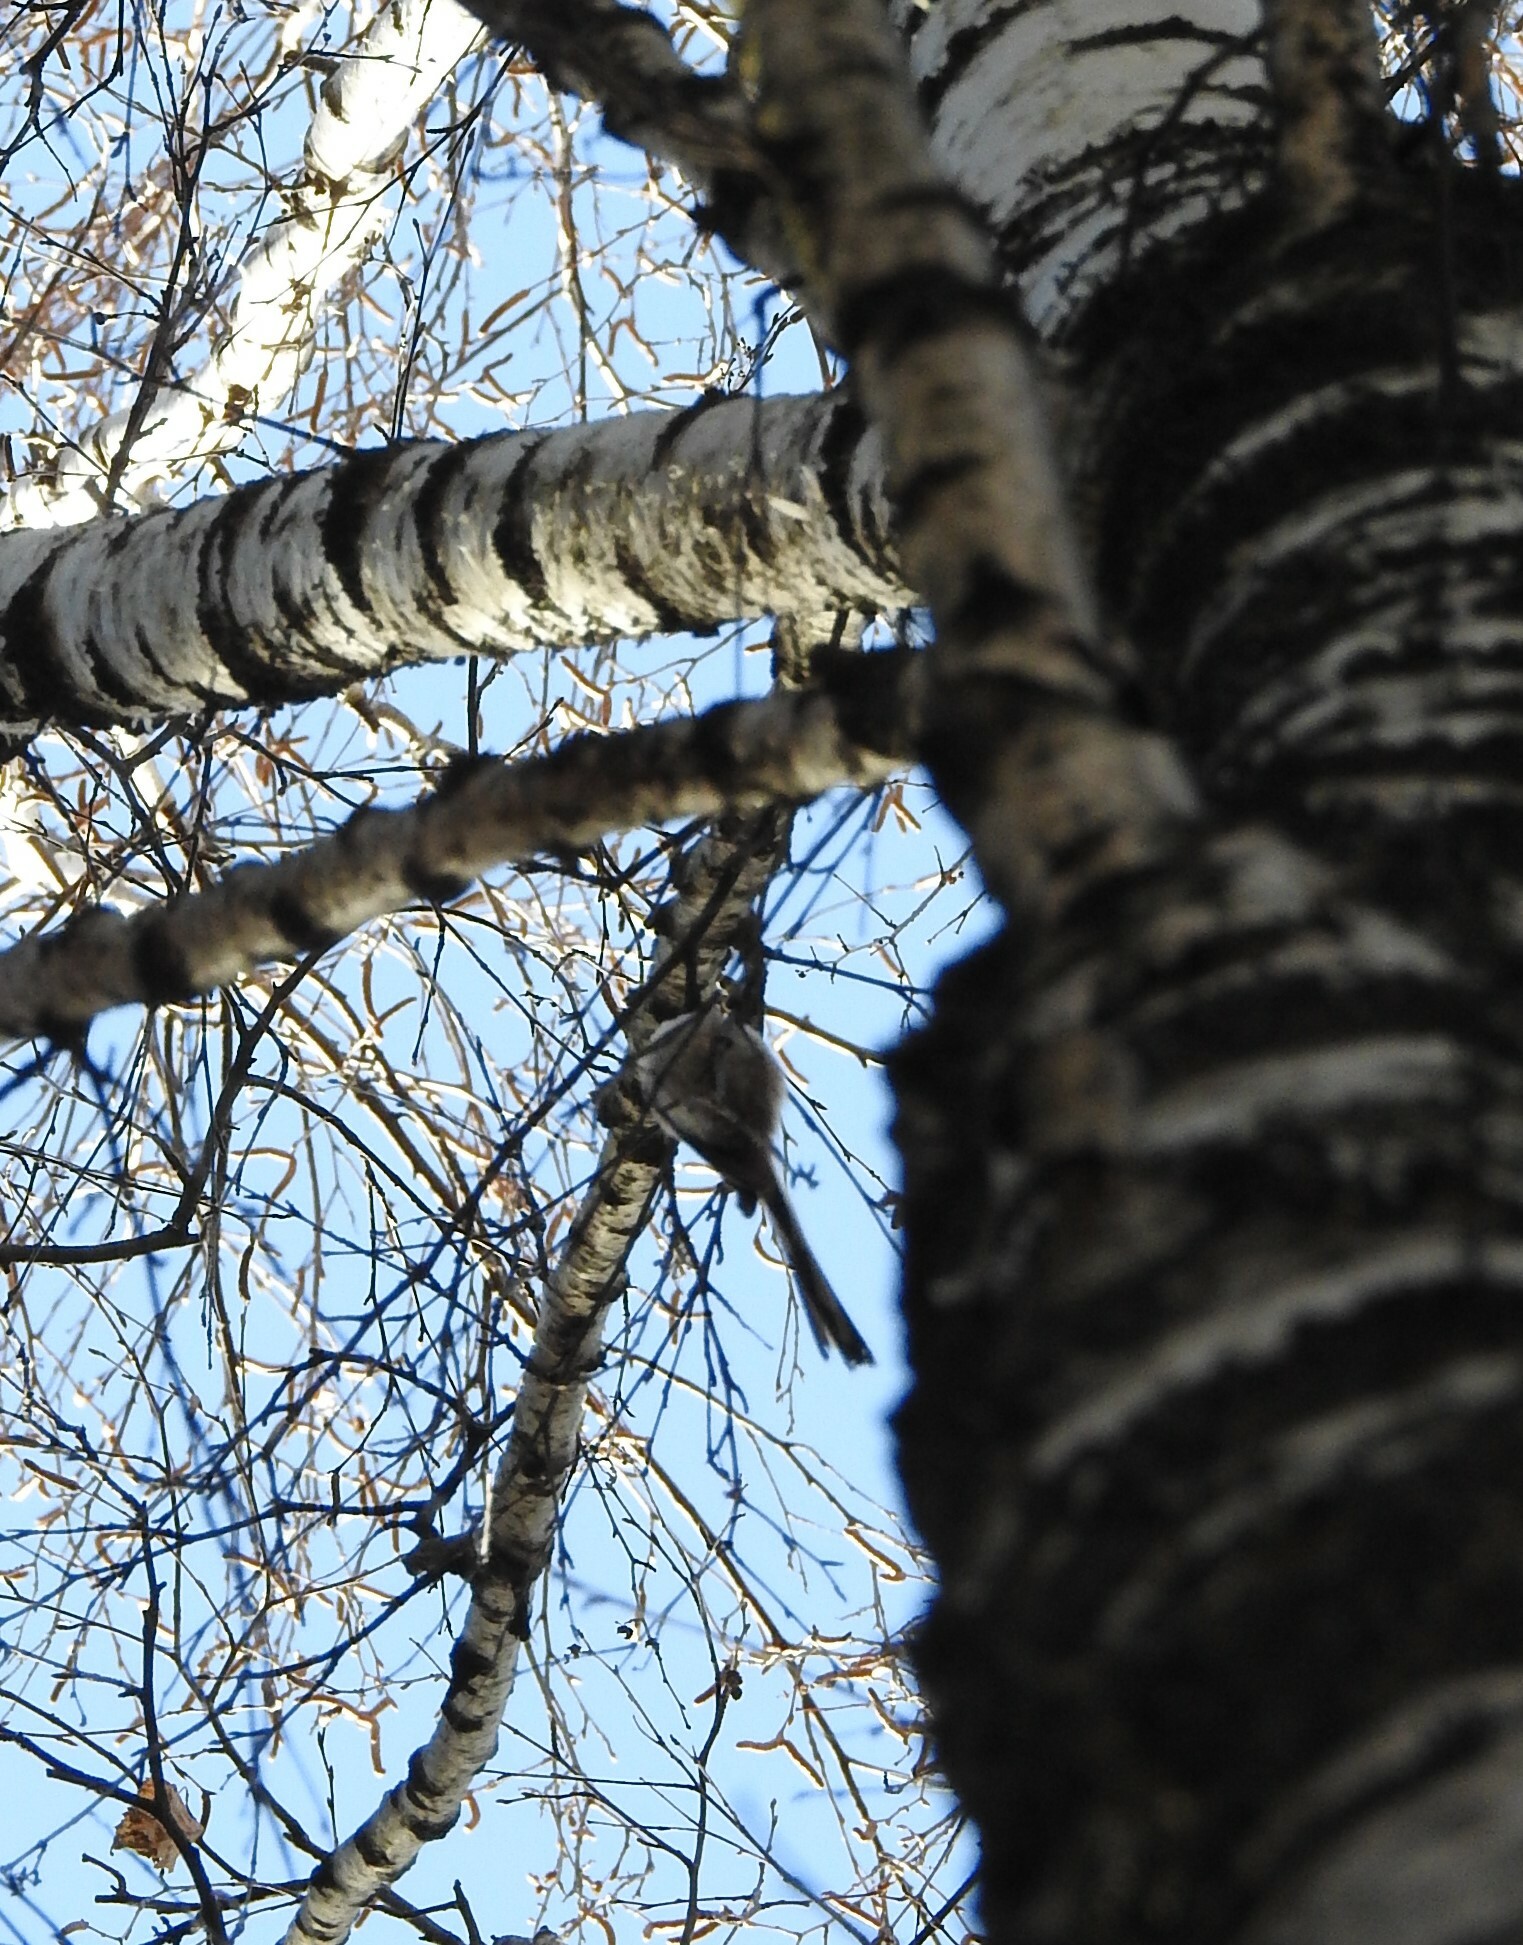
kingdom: Animalia
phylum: Chordata
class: Aves
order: Passeriformes
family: Aegithalidae
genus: Aegithalos
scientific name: Aegithalos caudatus
